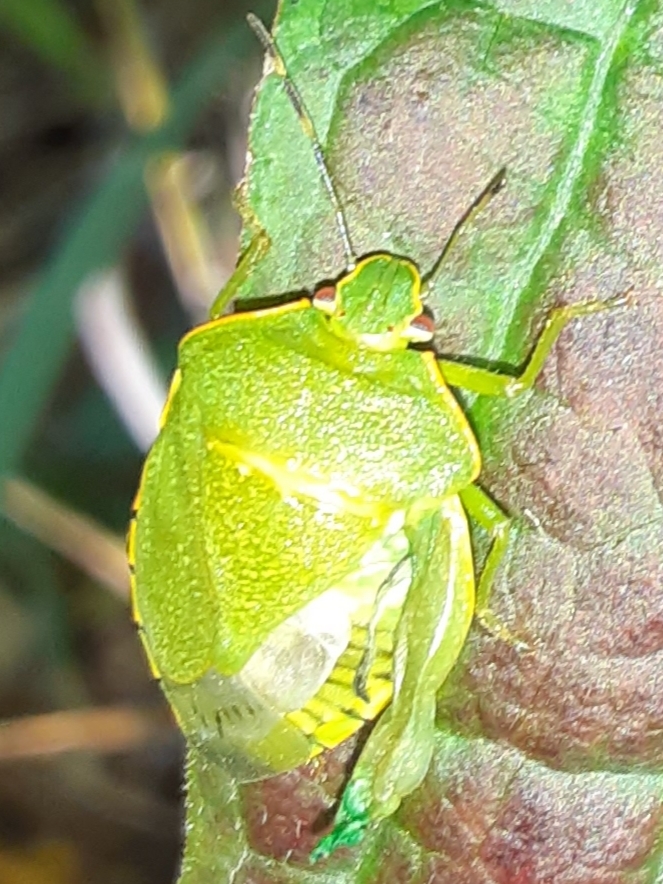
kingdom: Animalia
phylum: Arthropoda
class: Insecta
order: Hemiptera
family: Pentatomidae
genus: Chinavia
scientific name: Chinavia hilaris
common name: Green stink bug
